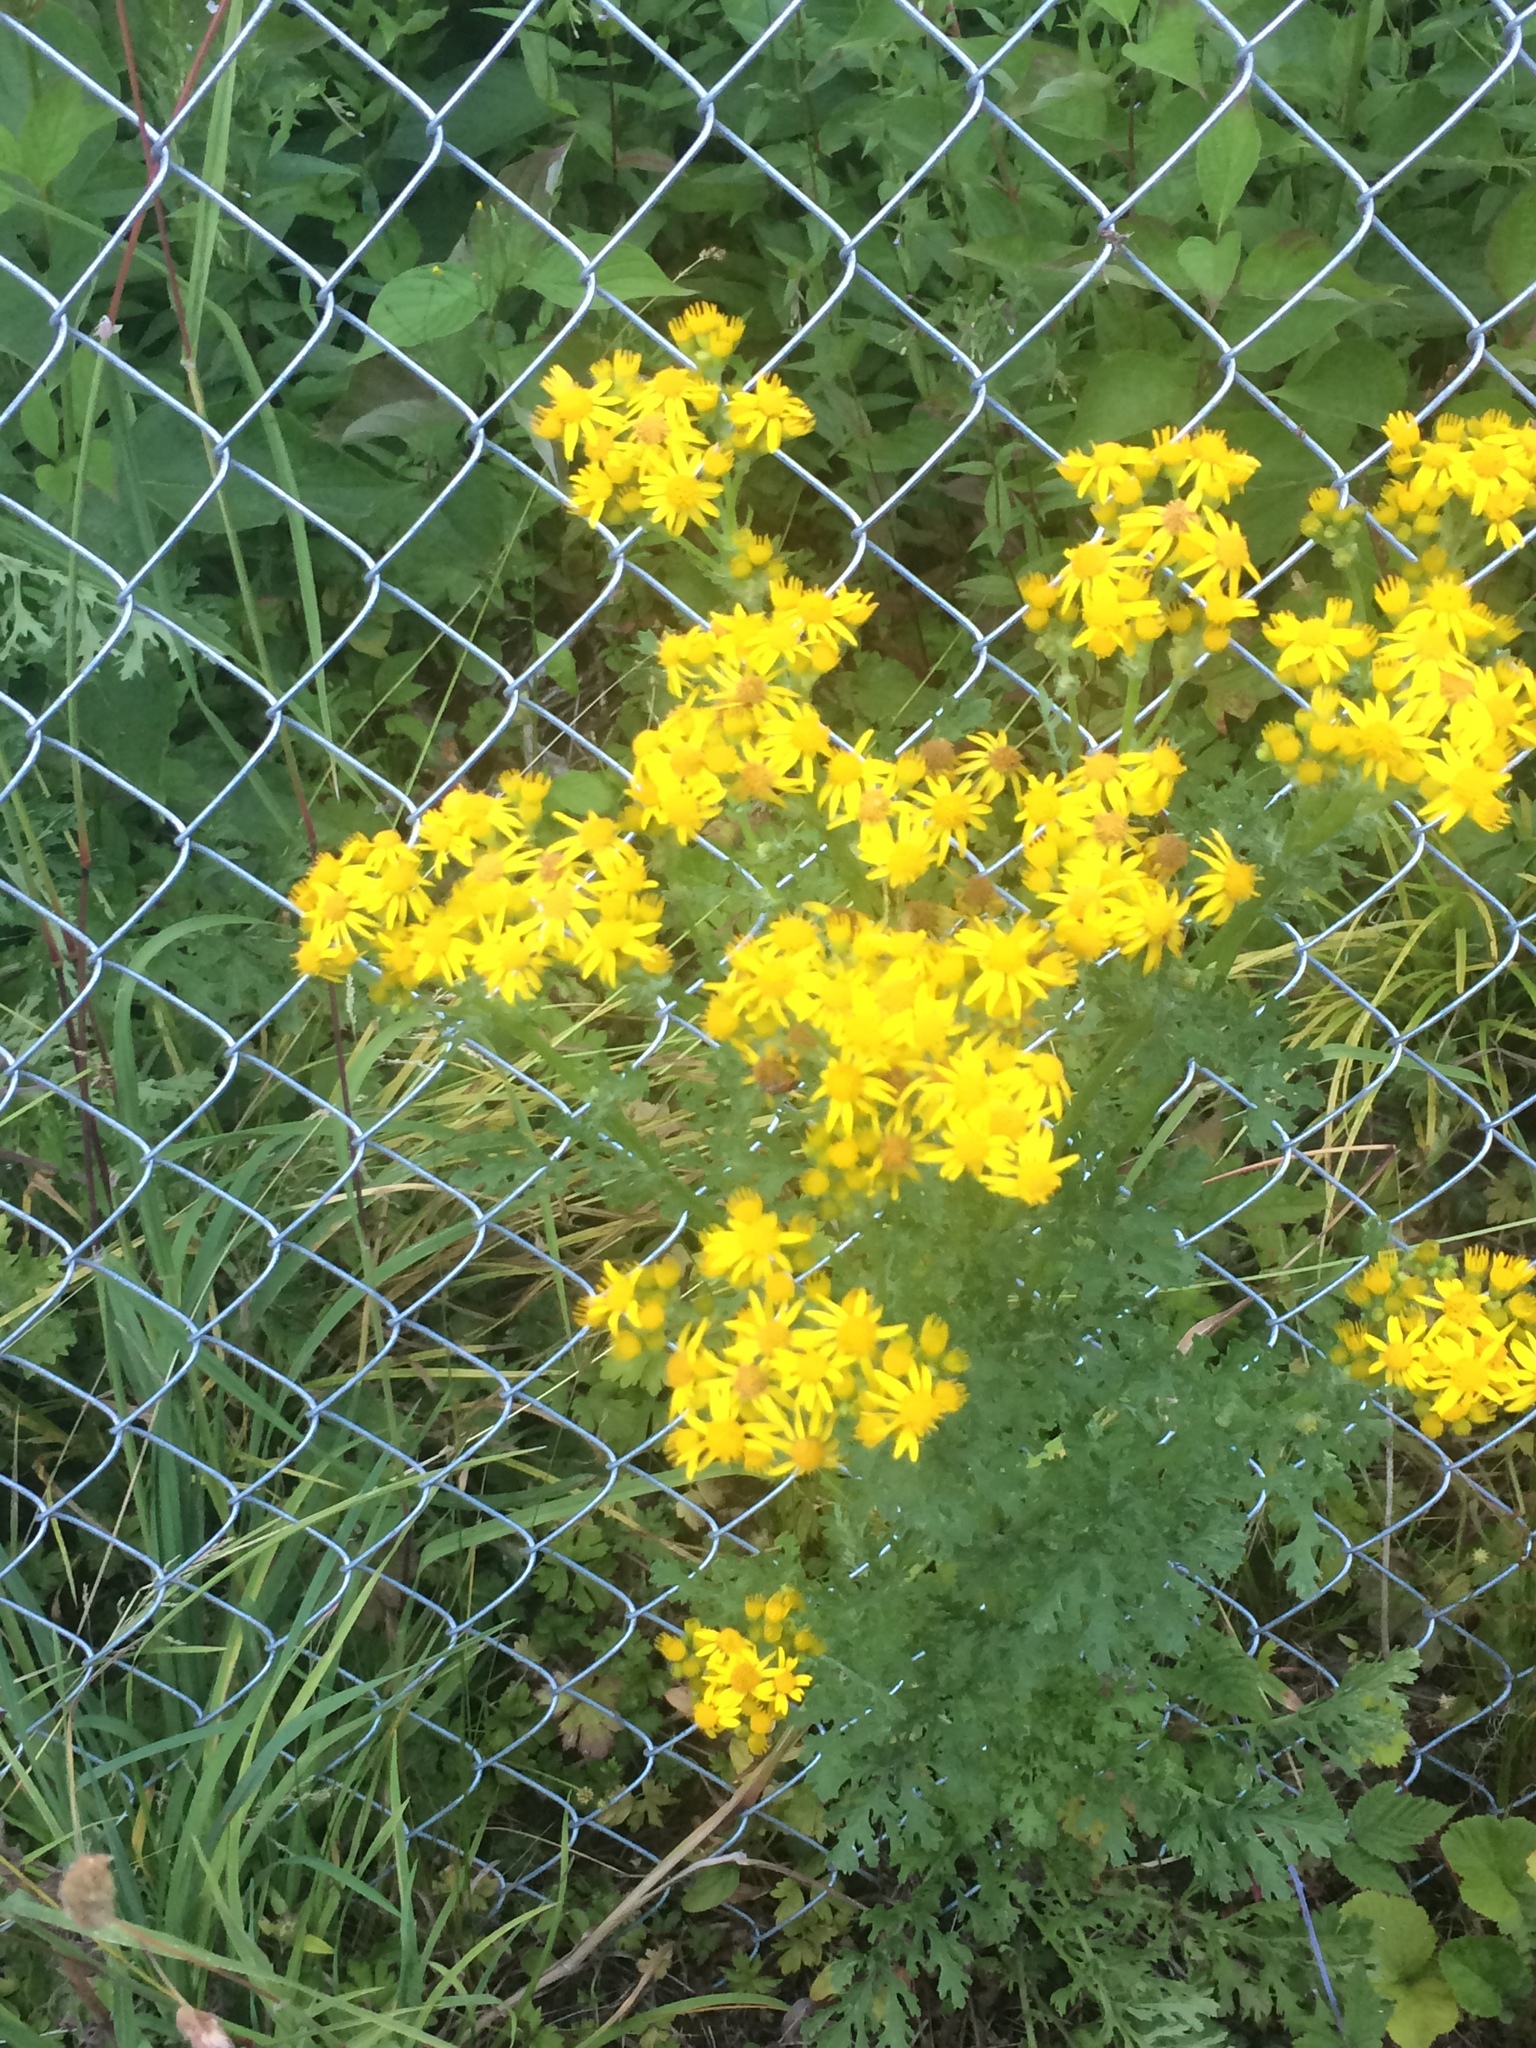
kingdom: Plantae
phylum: Tracheophyta
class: Magnoliopsida
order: Asterales
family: Asteraceae
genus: Jacobaea
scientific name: Jacobaea vulgaris
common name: Stinking willie
